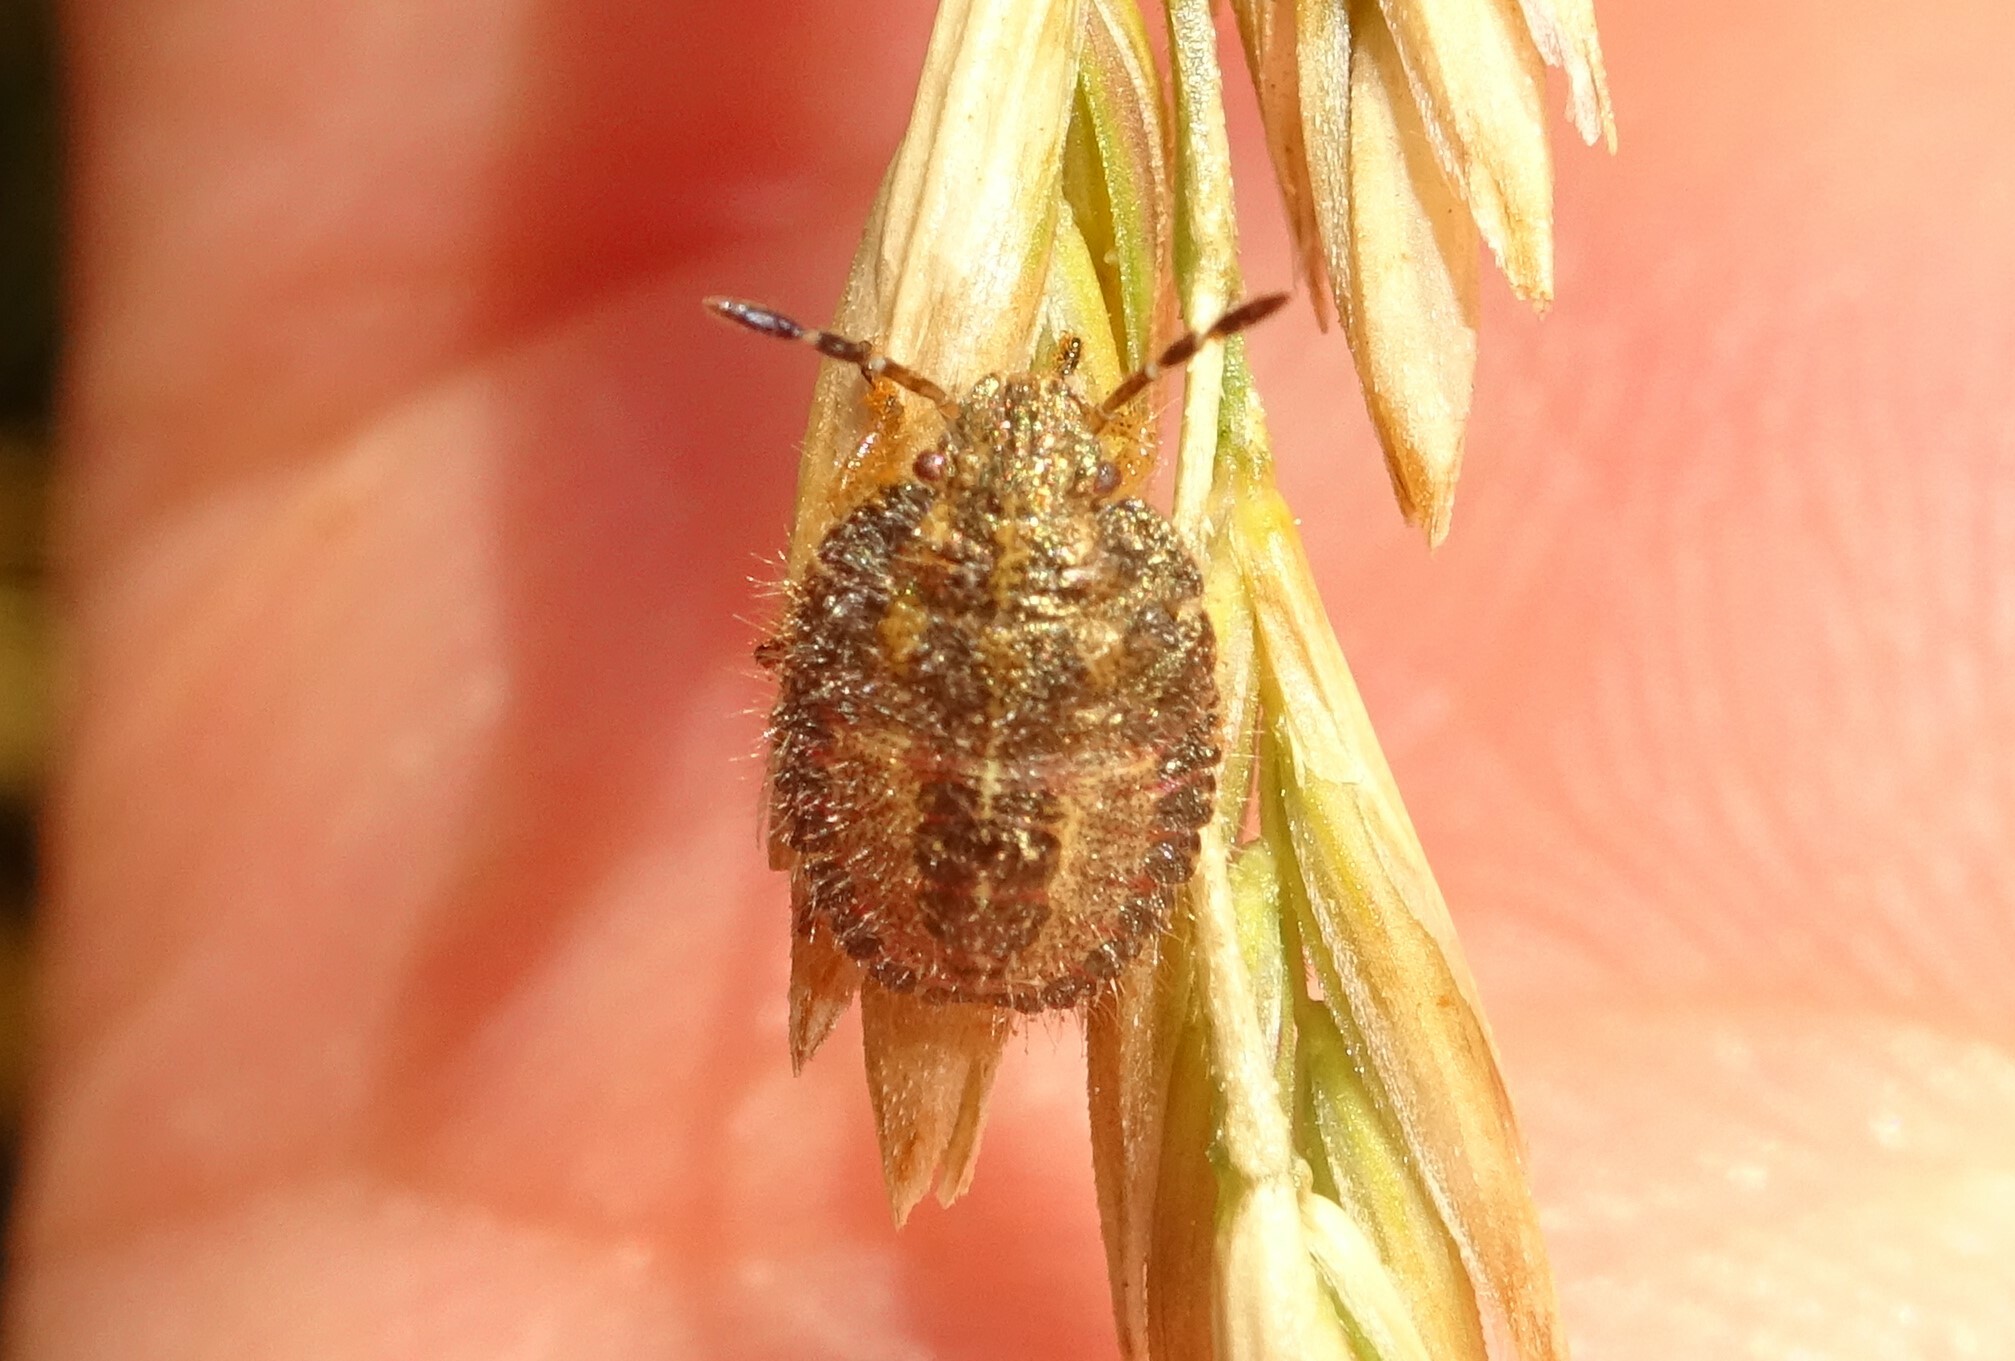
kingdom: Animalia
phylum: Arthropoda
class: Insecta
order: Hemiptera
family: Pentatomidae
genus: Dolycoris
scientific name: Dolycoris baccarum
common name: Sloe bug
